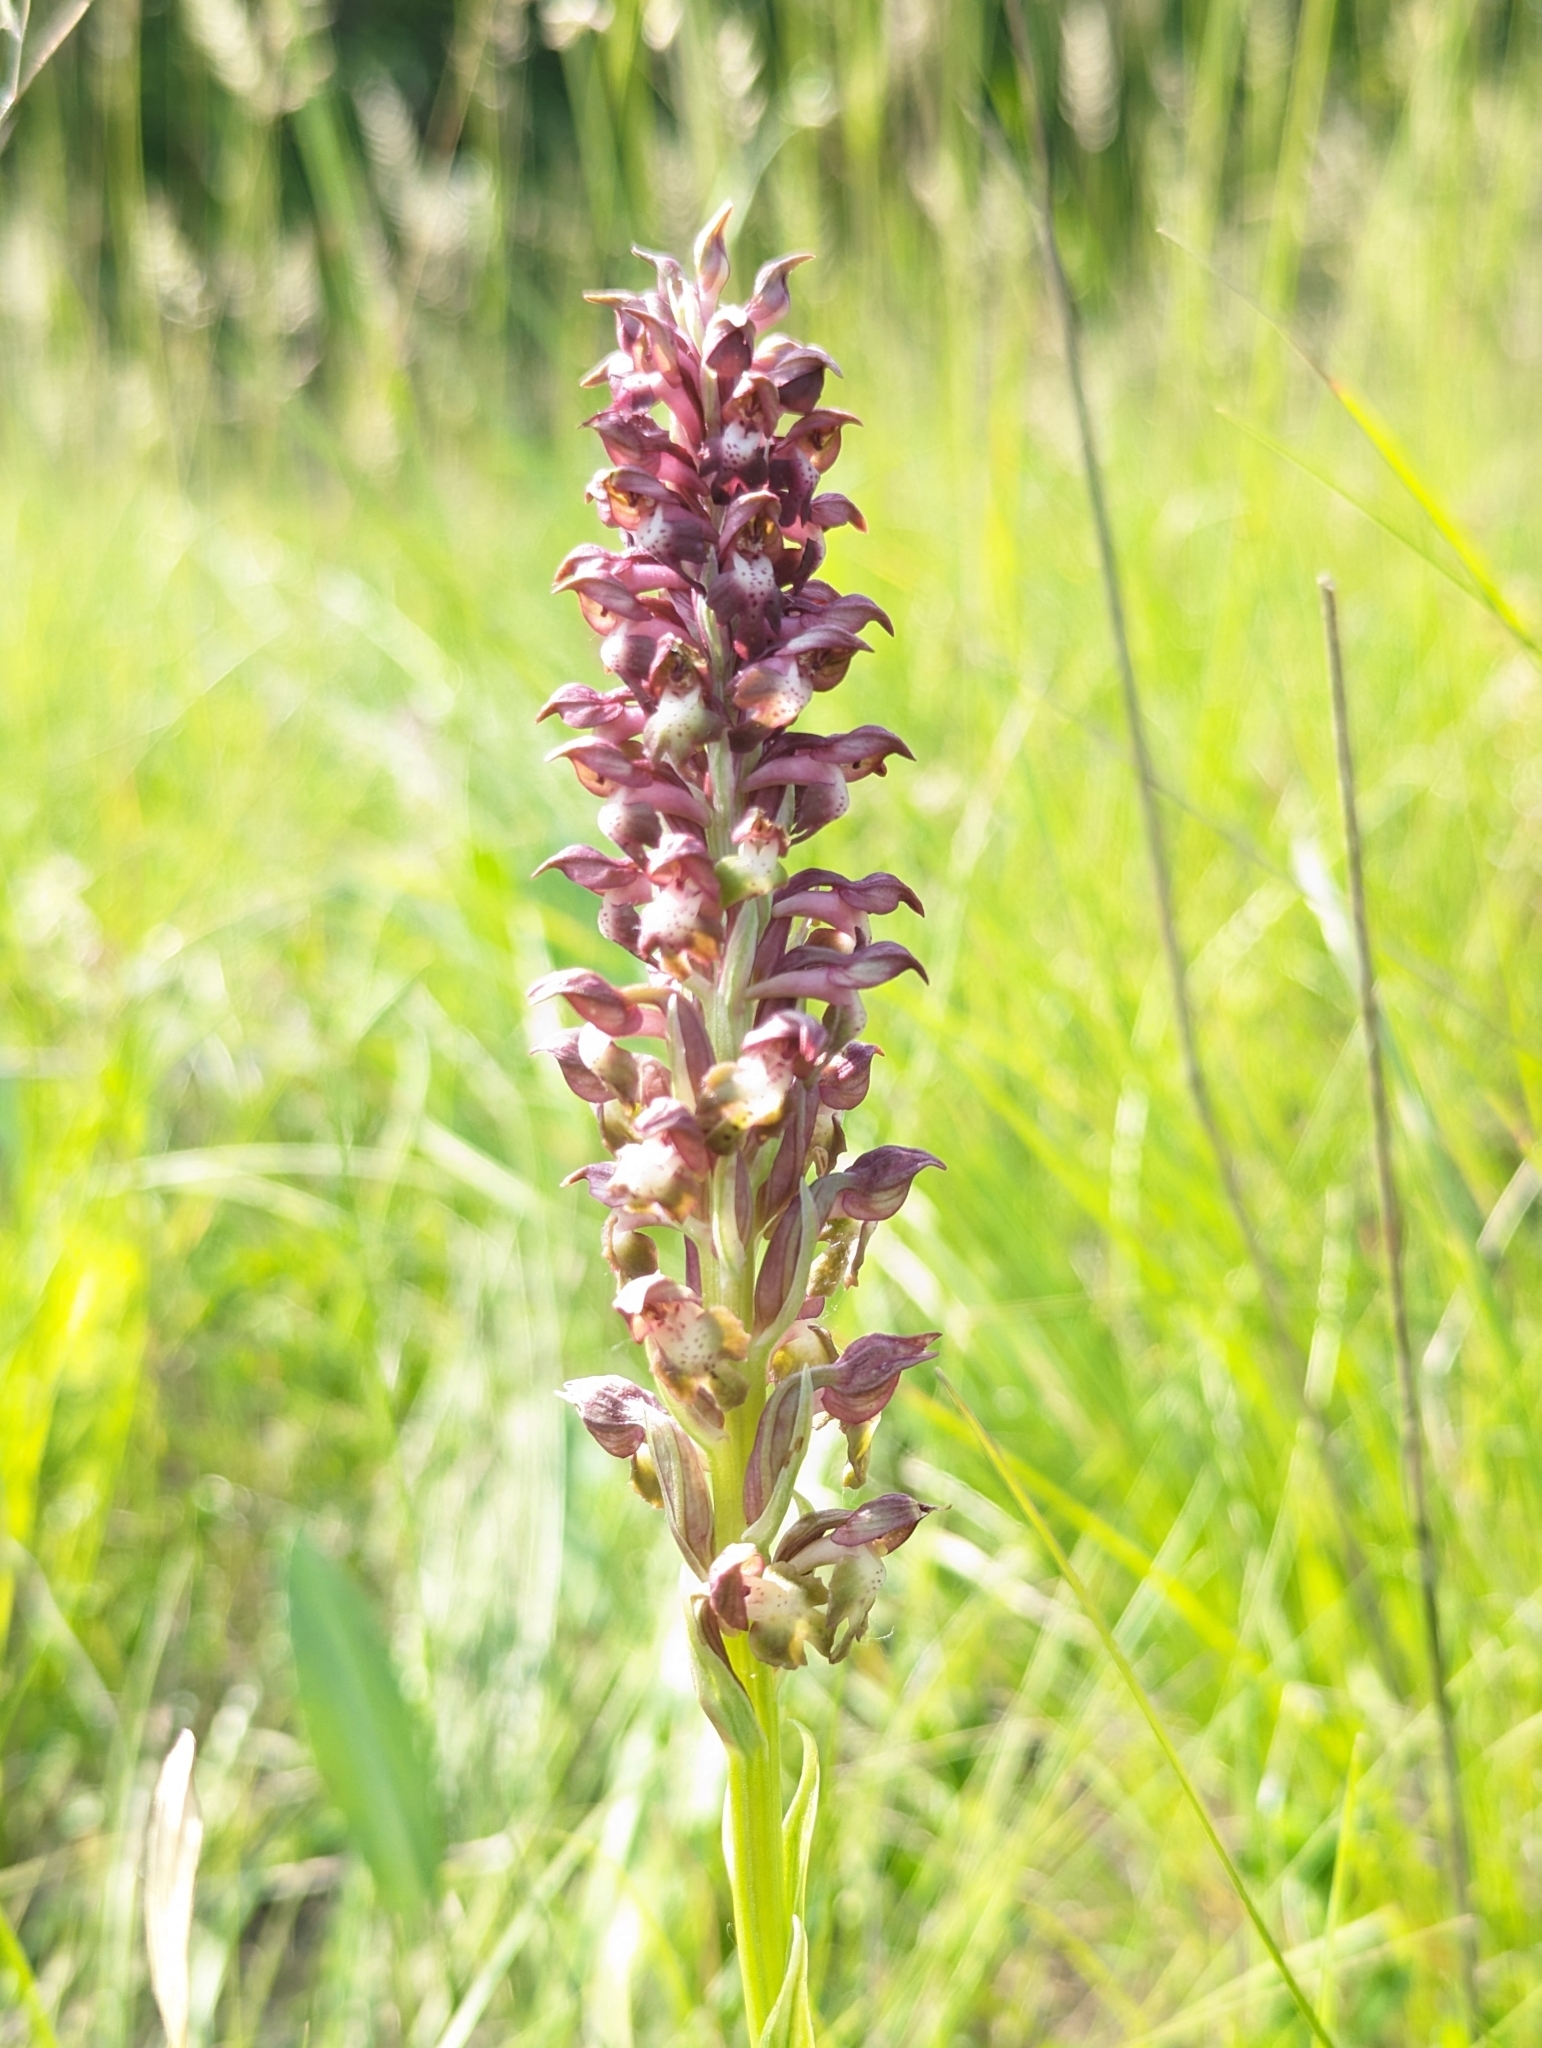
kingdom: Plantae
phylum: Tracheophyta
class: Liliopsida
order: Asparagales
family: Orchidaceae
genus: Anacamptis
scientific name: Anacamptis coriophora
